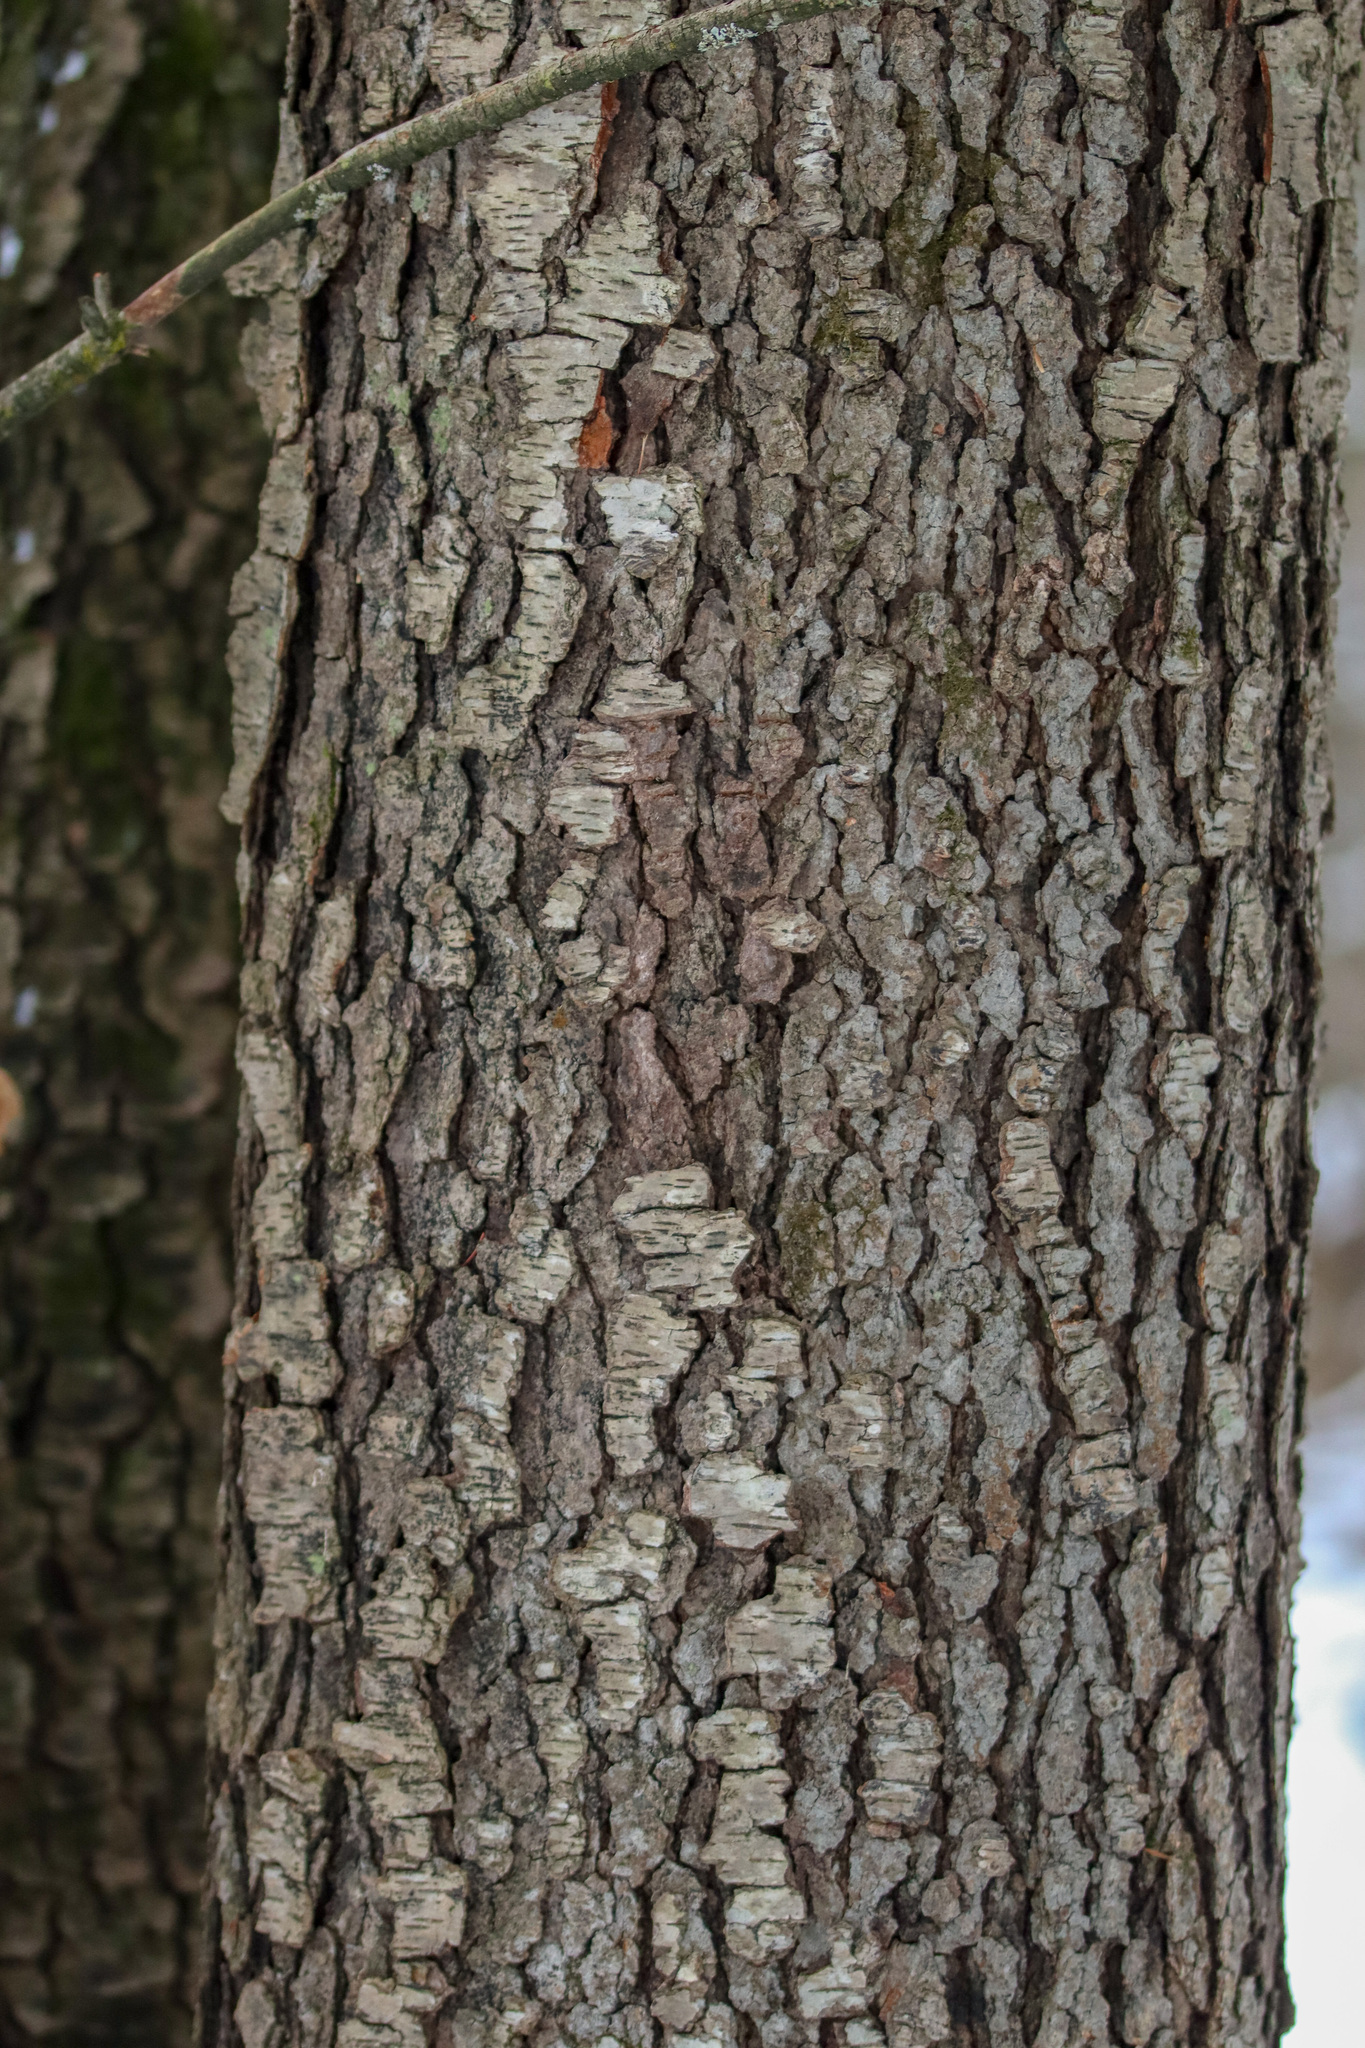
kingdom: Plantae
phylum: Tracheophyta
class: Magnoliopsida
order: Rosales
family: Rosaceae
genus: Prunus
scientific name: Prunus serotina
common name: Black cherry
